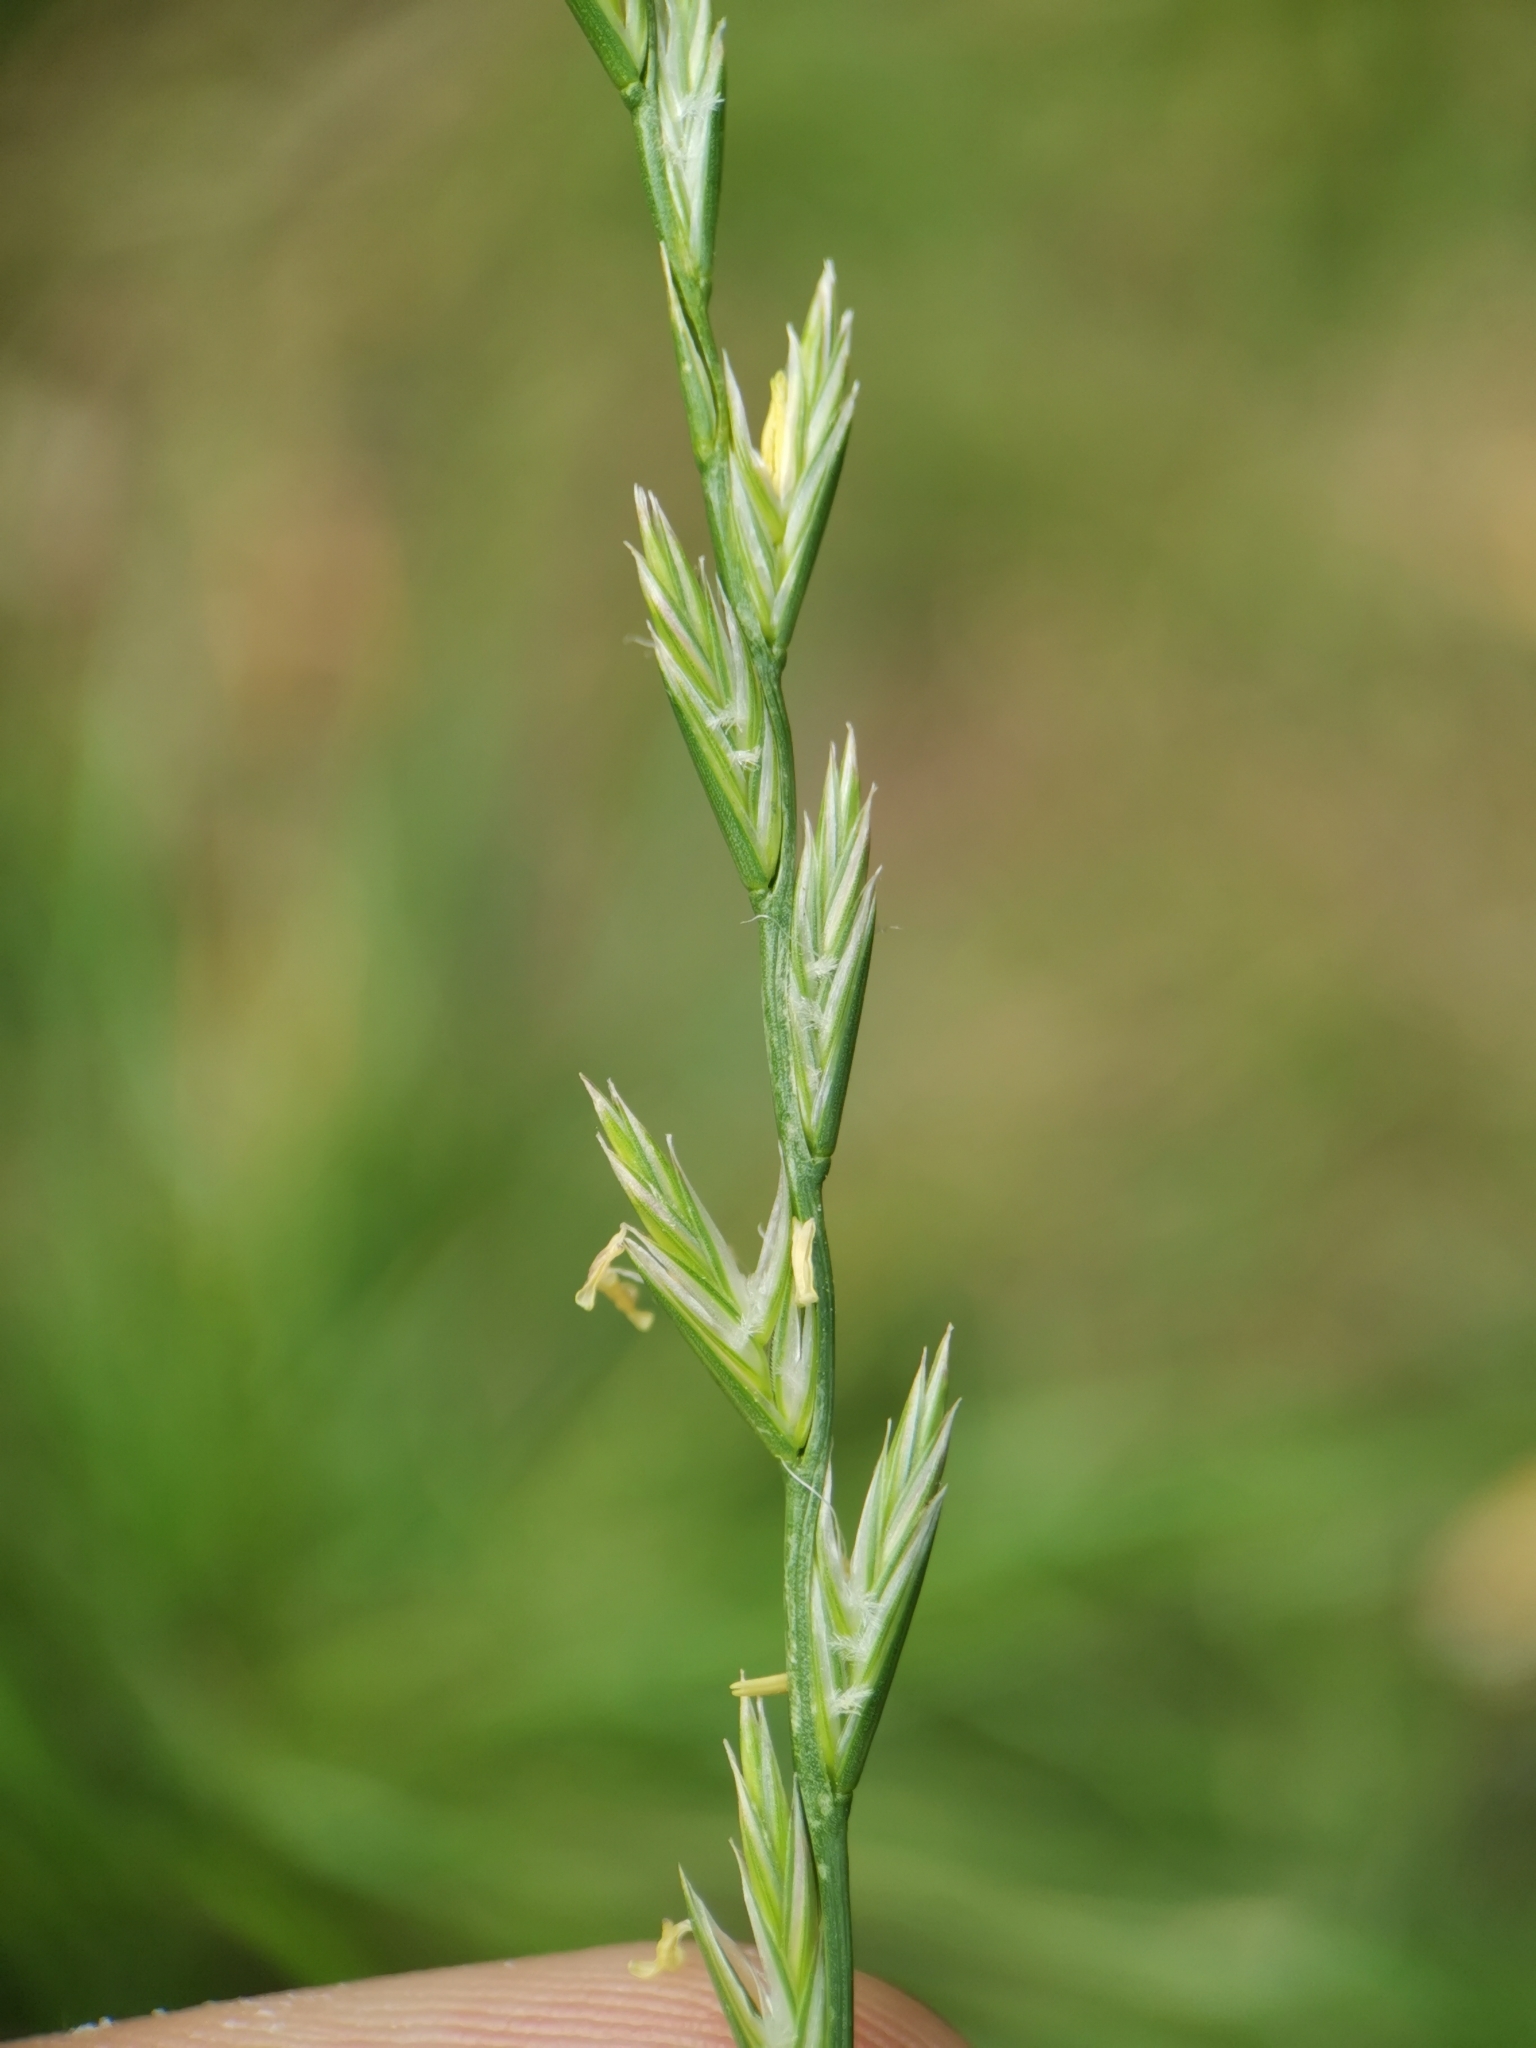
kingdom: Plantae
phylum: Tracheophyta
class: Liliopsida
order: Poales
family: Poaceae
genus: Lolium
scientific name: Lolium perenne
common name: Perennial ryegrass
